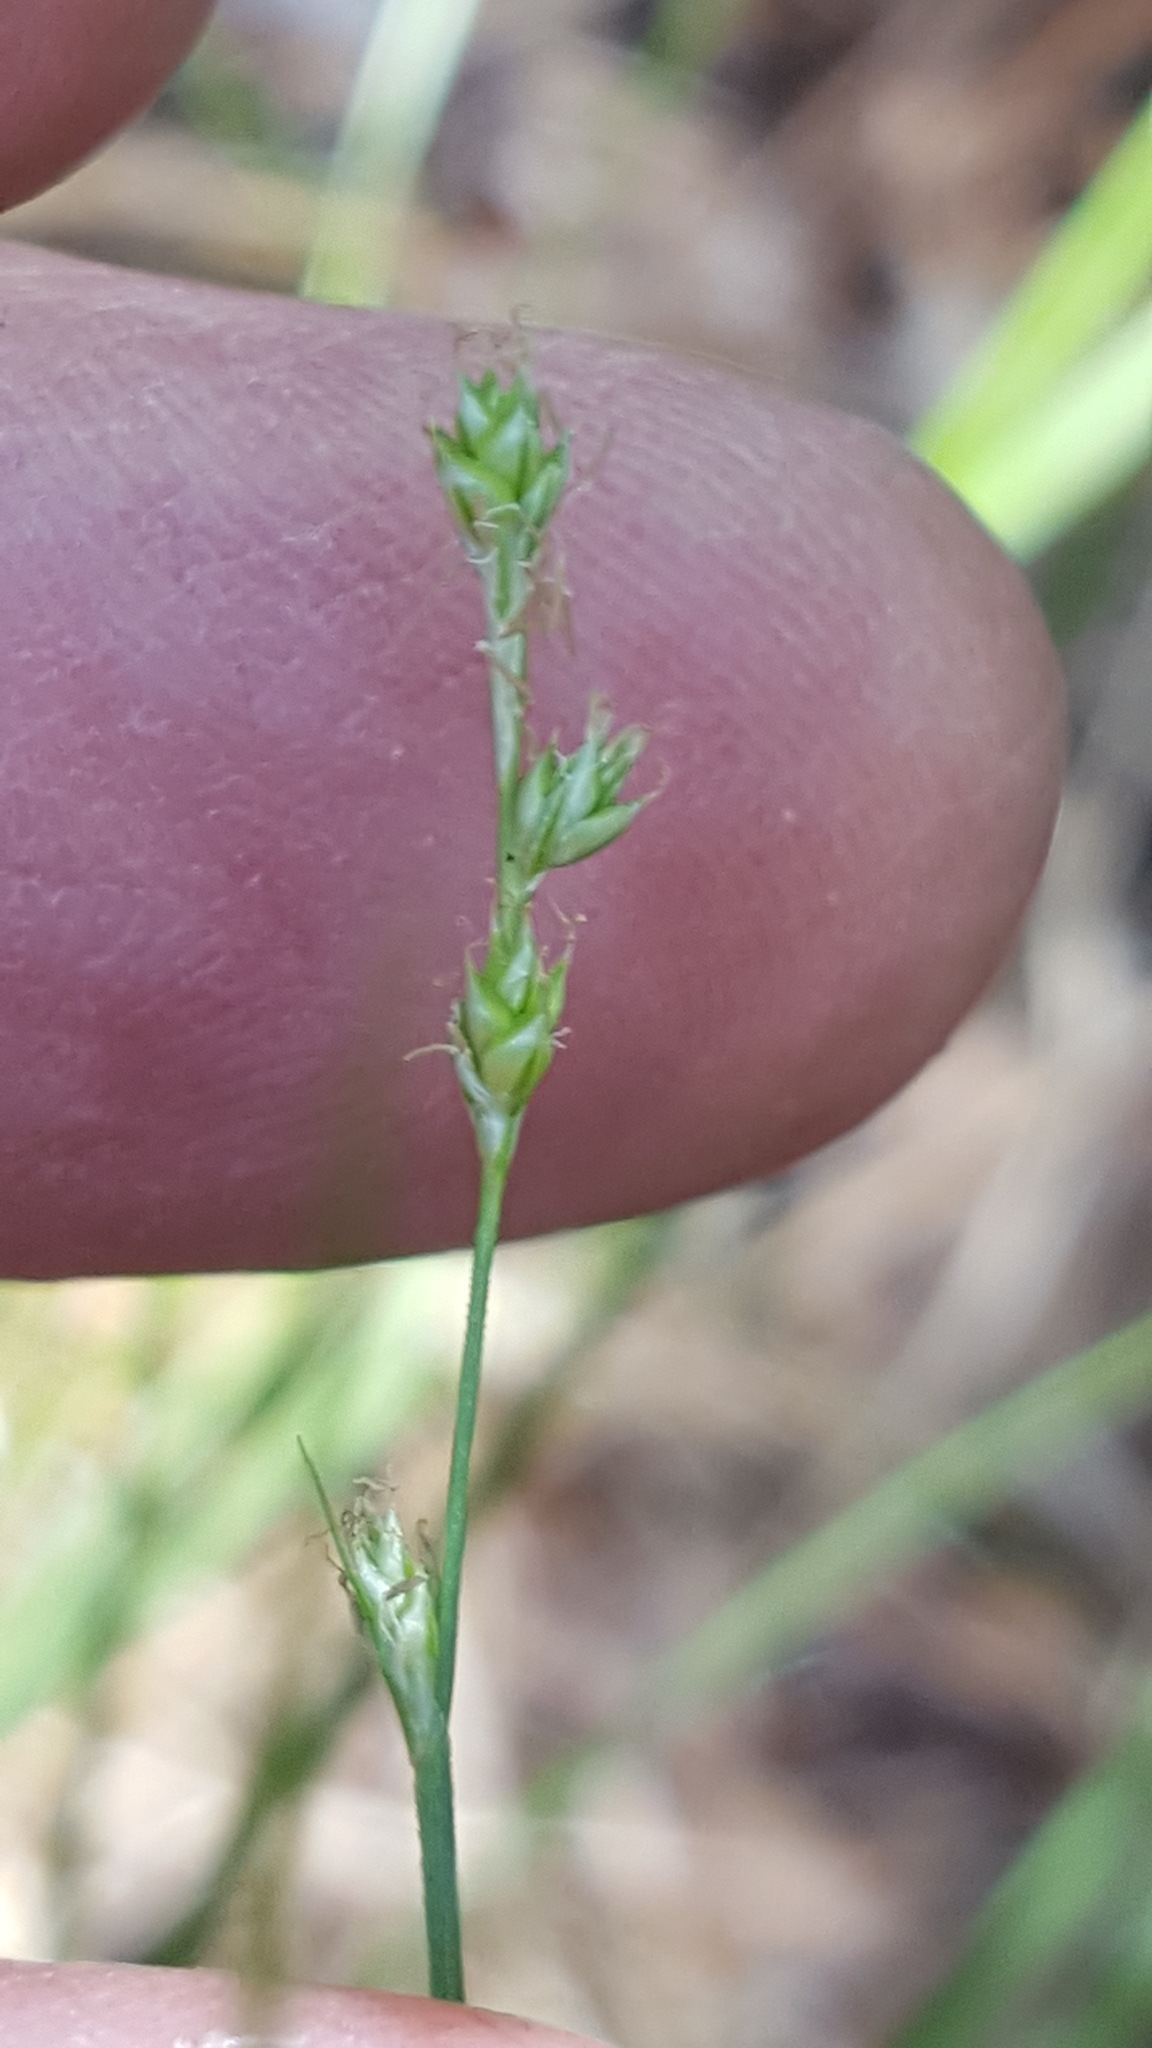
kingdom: Plantae
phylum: Tracheophyta
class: Liliopsida
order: Poales
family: Cyperaceae
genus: Carex
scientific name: Carex trisperma
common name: Three-seeded sedge
